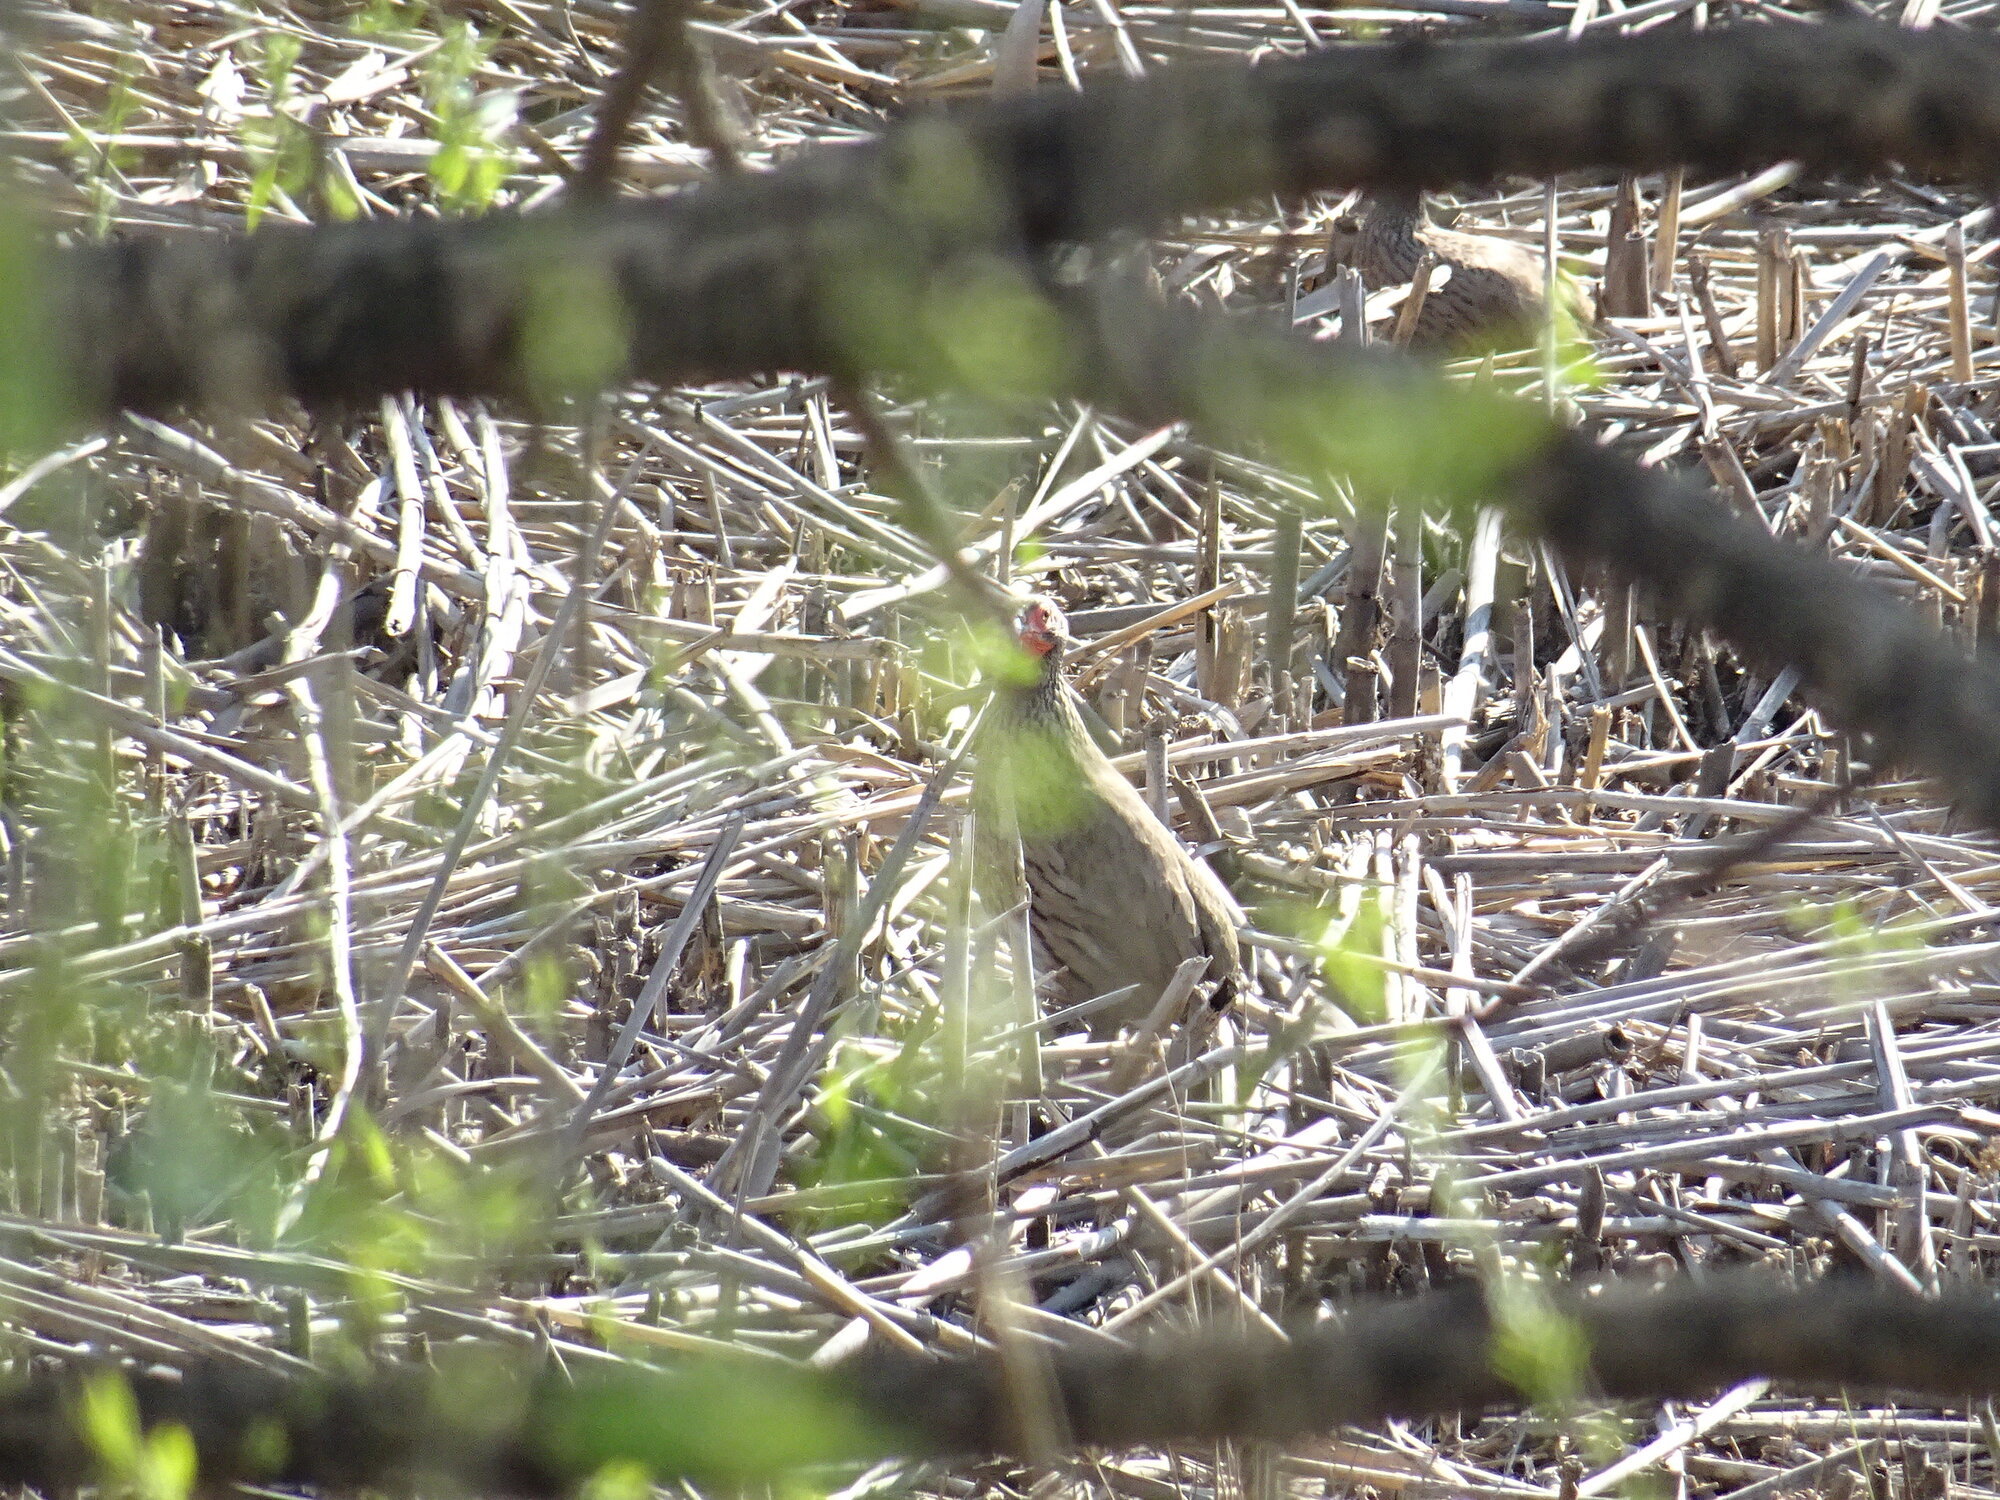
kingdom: Animalia
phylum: Chordata
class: Aves
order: Galliformes
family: Phasianidae
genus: Pternistis
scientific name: Pternistis swainsonii
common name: Swainson's spurfowl
